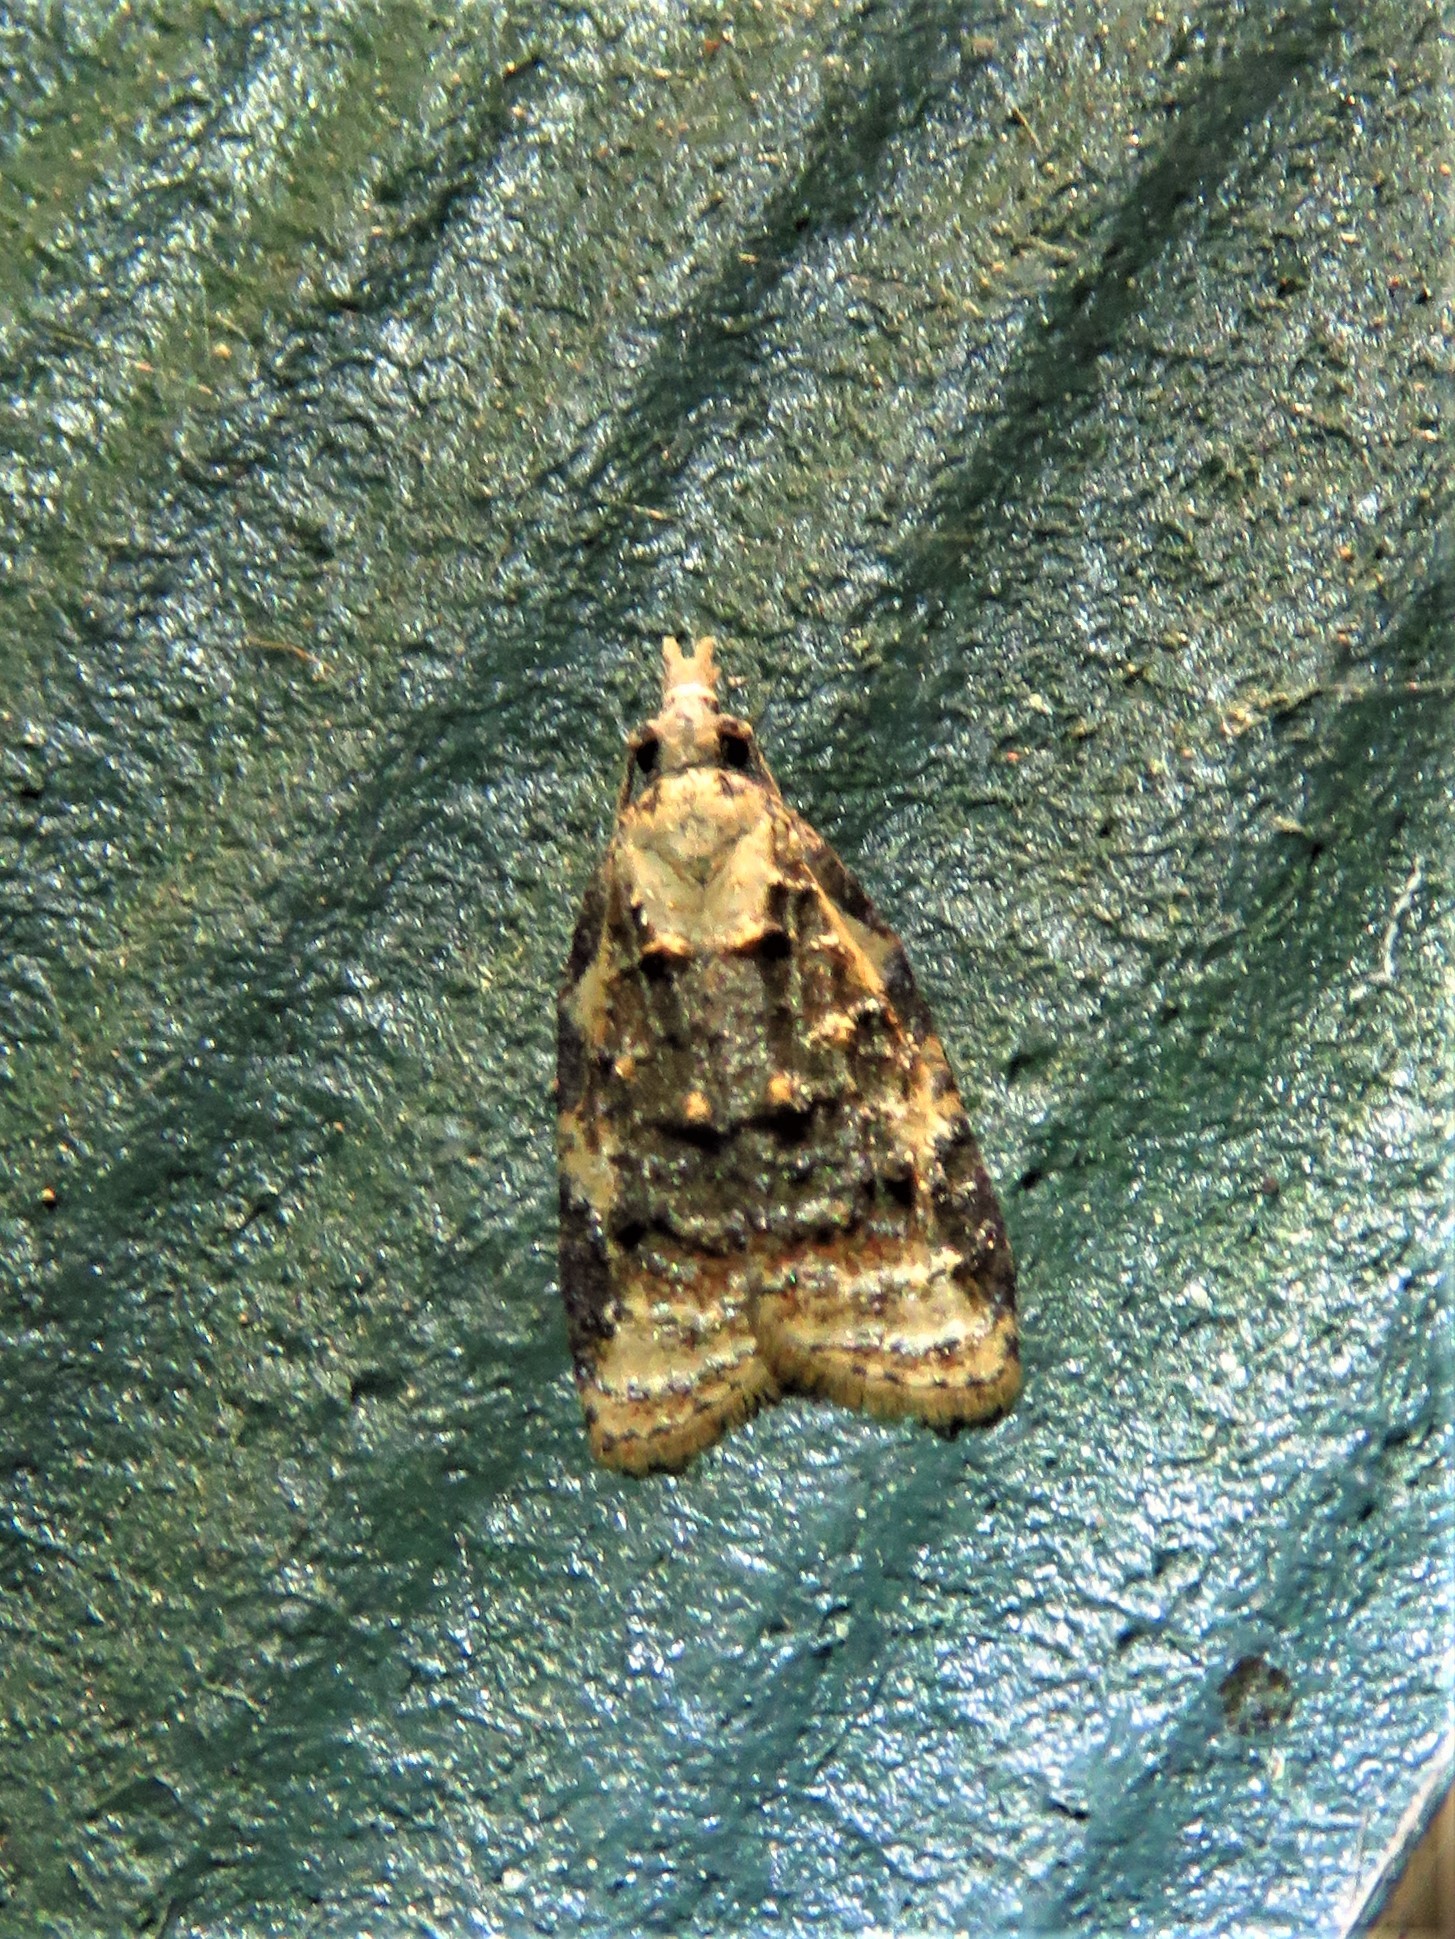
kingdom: Animalia
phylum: Arthropoda
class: Insecta
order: Lepidoptera
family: Tortricidae
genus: Platynota
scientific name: Platynota exasperatana
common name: Exasperating platynota moth
